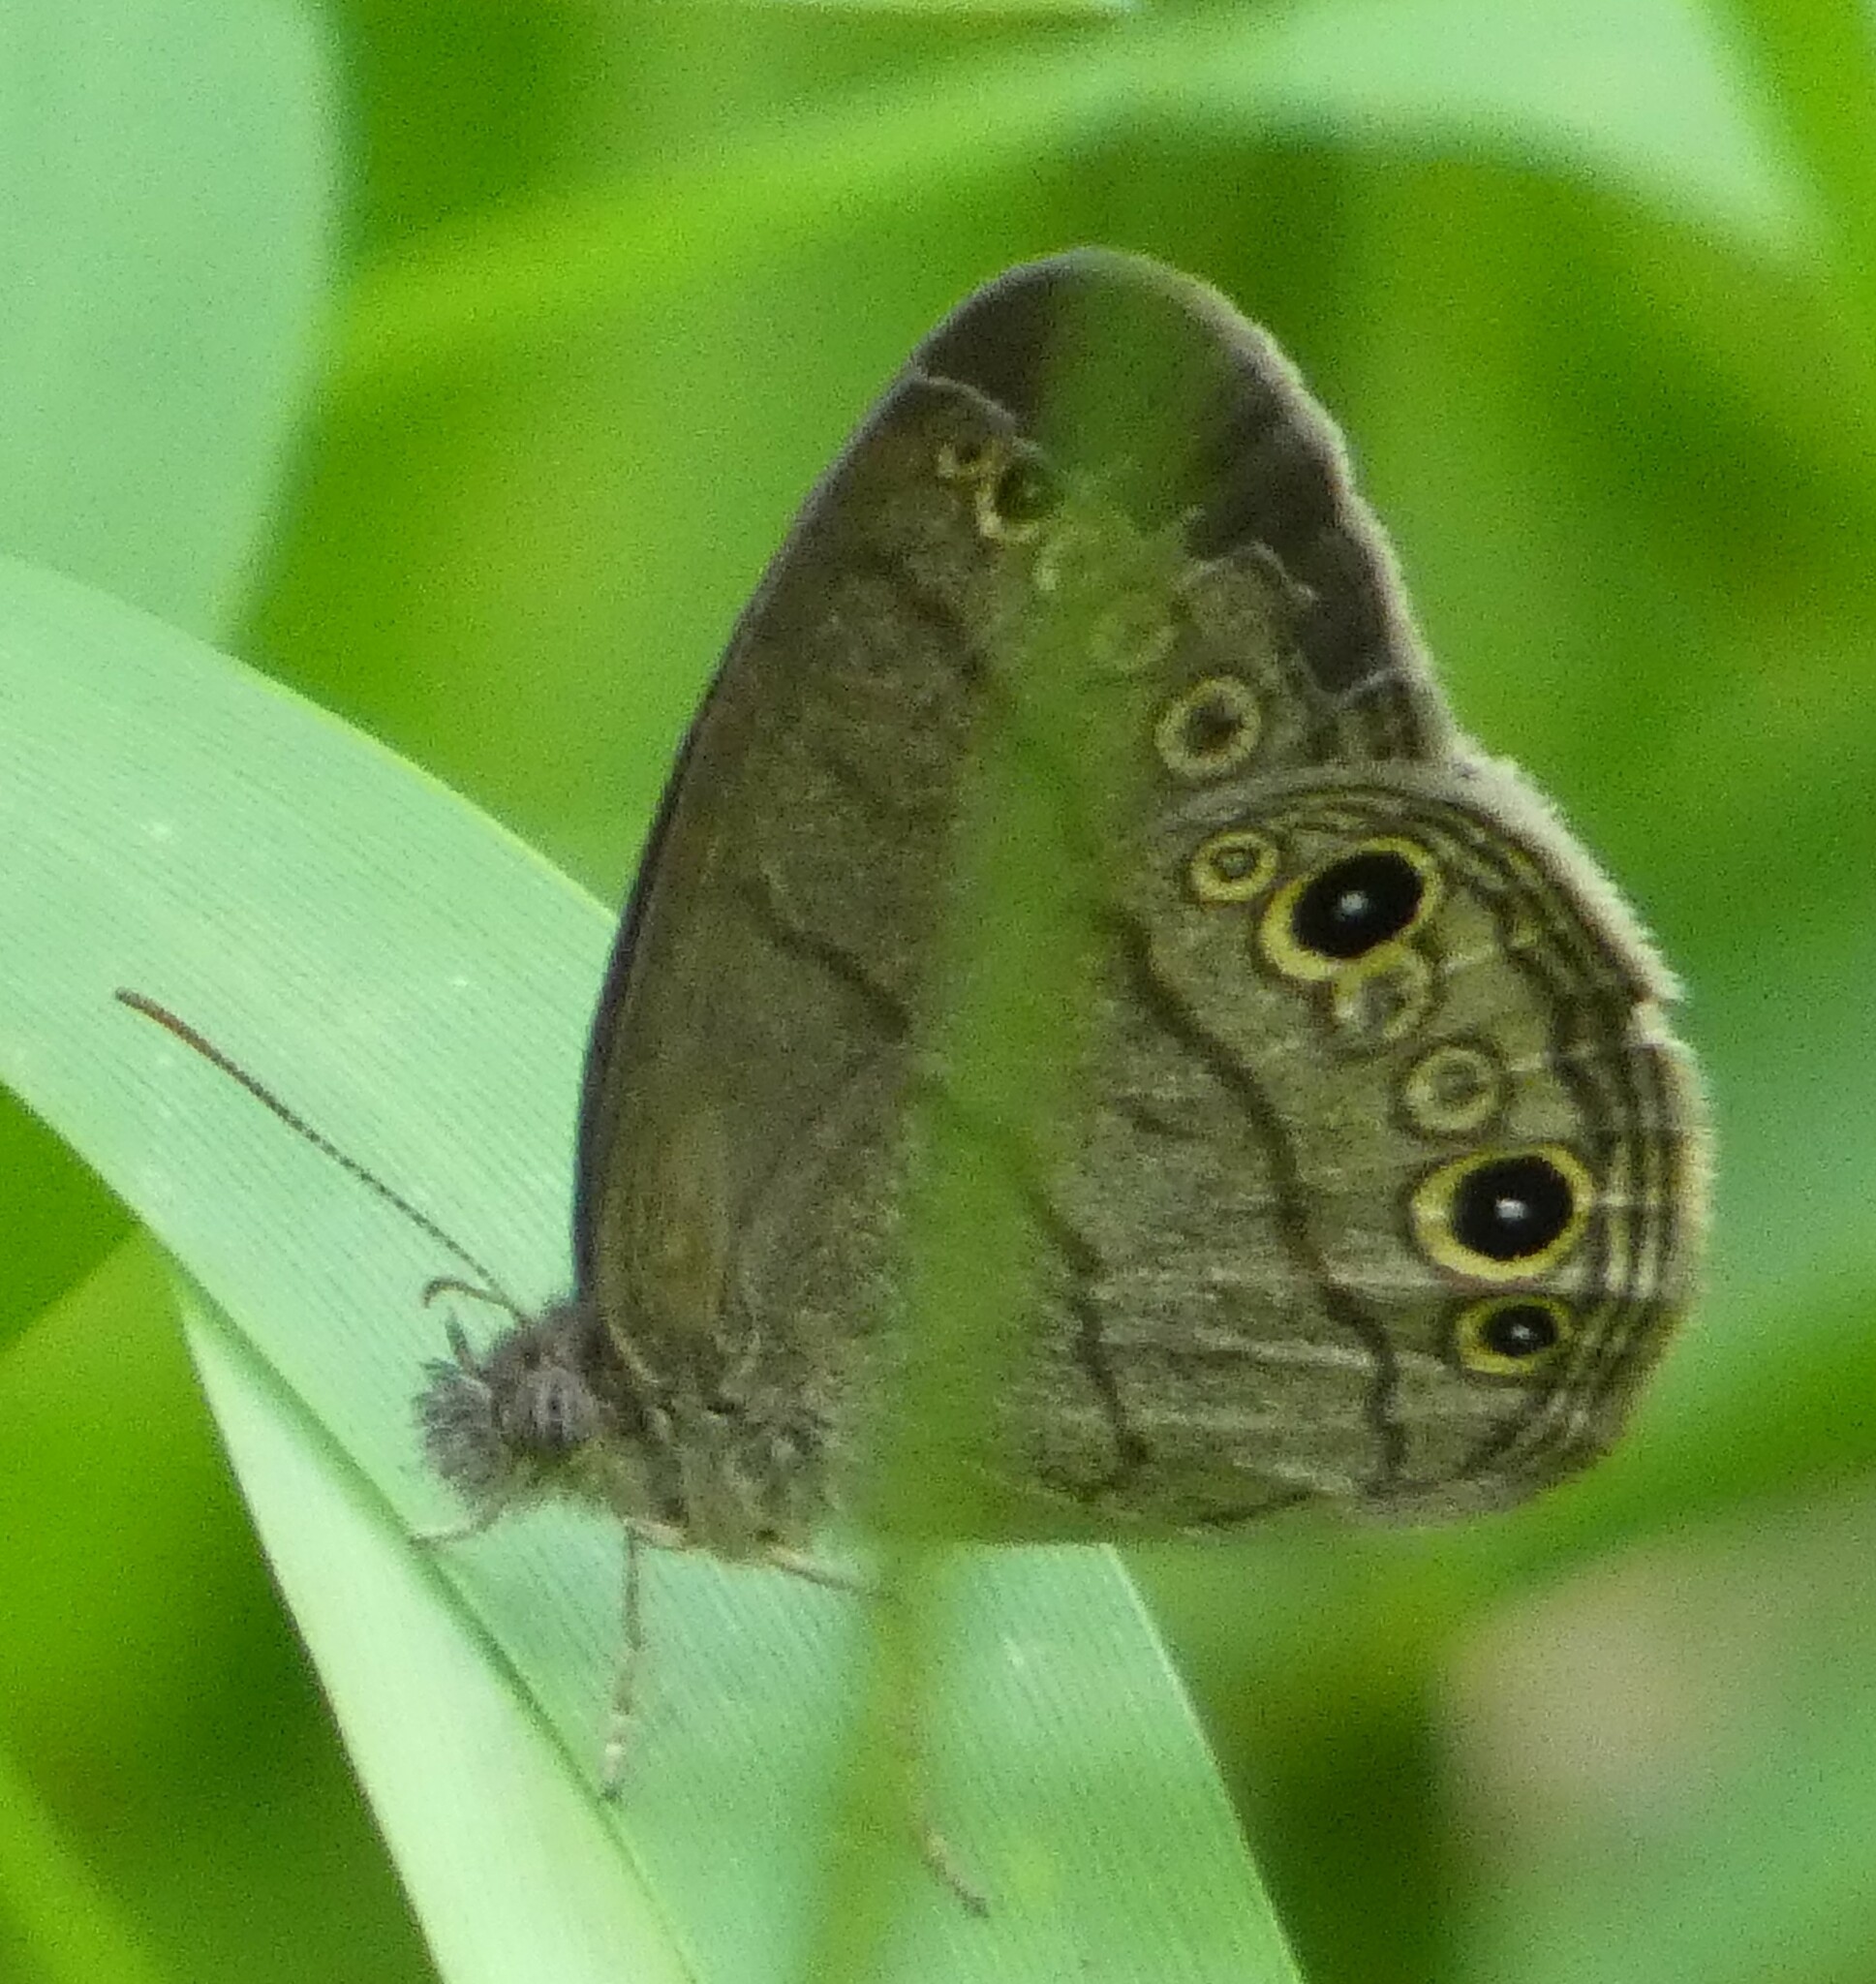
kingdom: Animalia
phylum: Arthropoda
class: Insecta
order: Lepidoptera
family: Nymphalidae
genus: Hermeuptychia
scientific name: Hermeuptychia hermes
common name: Hermes satyr
